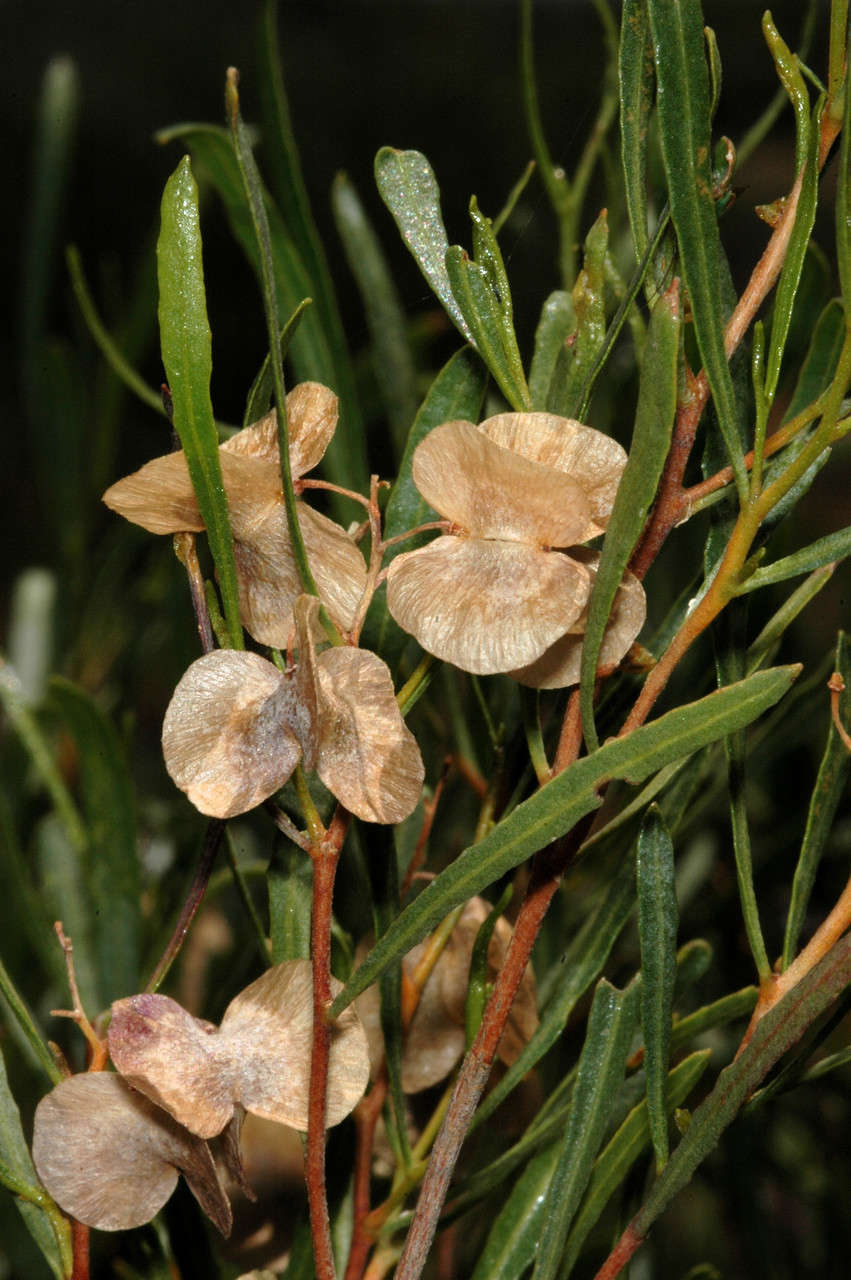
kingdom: Plantae
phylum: Tracheophyta
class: Magnoliopsida
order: Sapindales
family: Sapindaceae
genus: Dodonaea
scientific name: Dodonaea viscosa
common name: Hopbush
